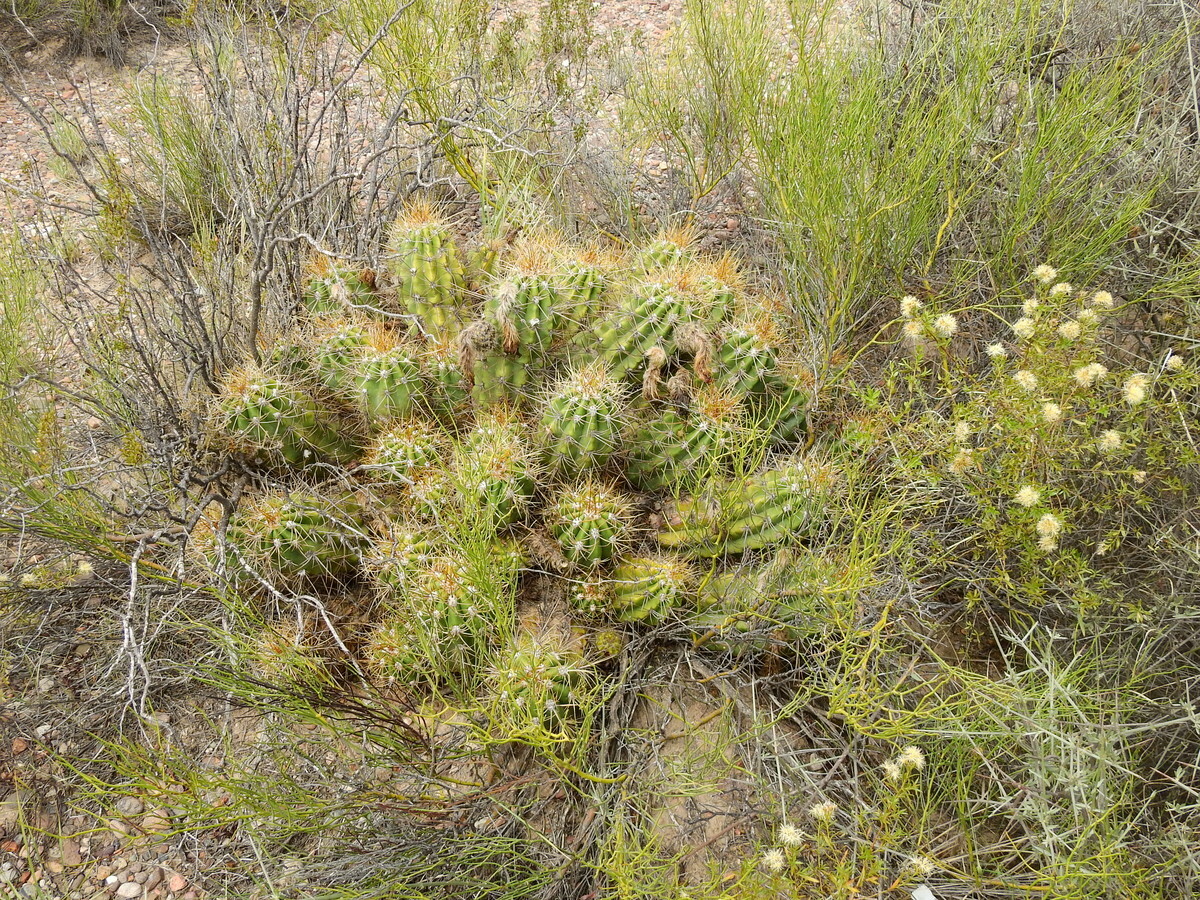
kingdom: Plantae
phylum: Tracheophyta
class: Magnoliopsida
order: Caryophyllales
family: Cactaceae
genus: Soehrensia
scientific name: Soehrensia candicans
